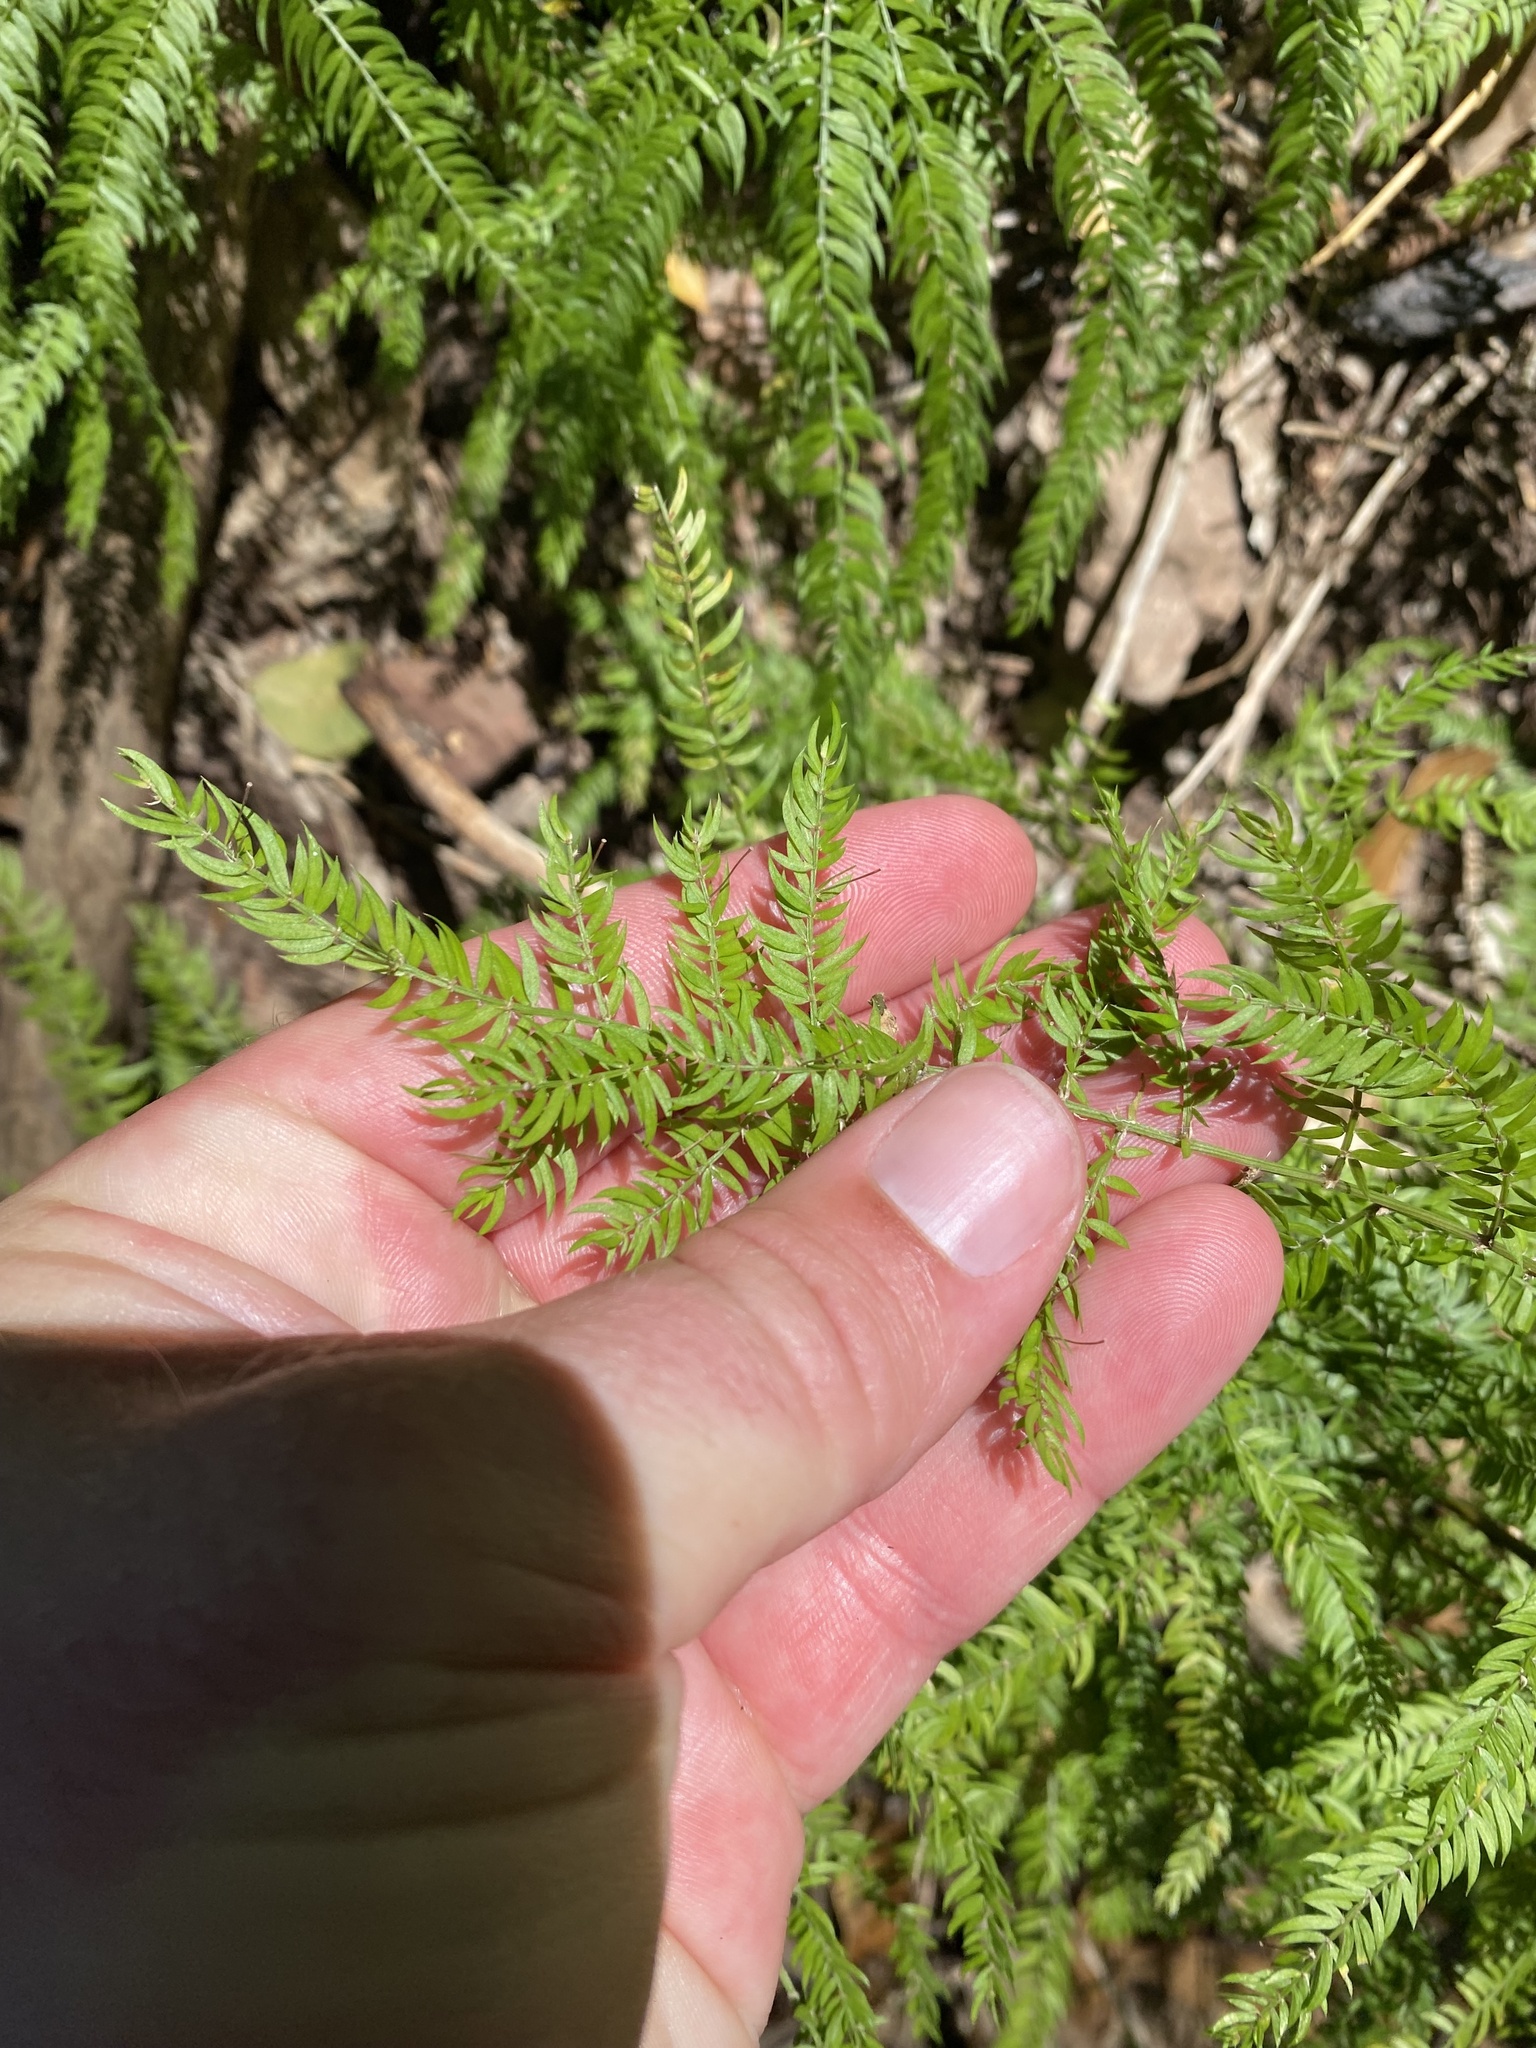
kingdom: Plantae
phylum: Tracheophyta
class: Liliopsida
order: Asparagales
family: Asparagaceae
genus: Asparagus
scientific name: Asparagus scandens
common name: Asparagus-fern
